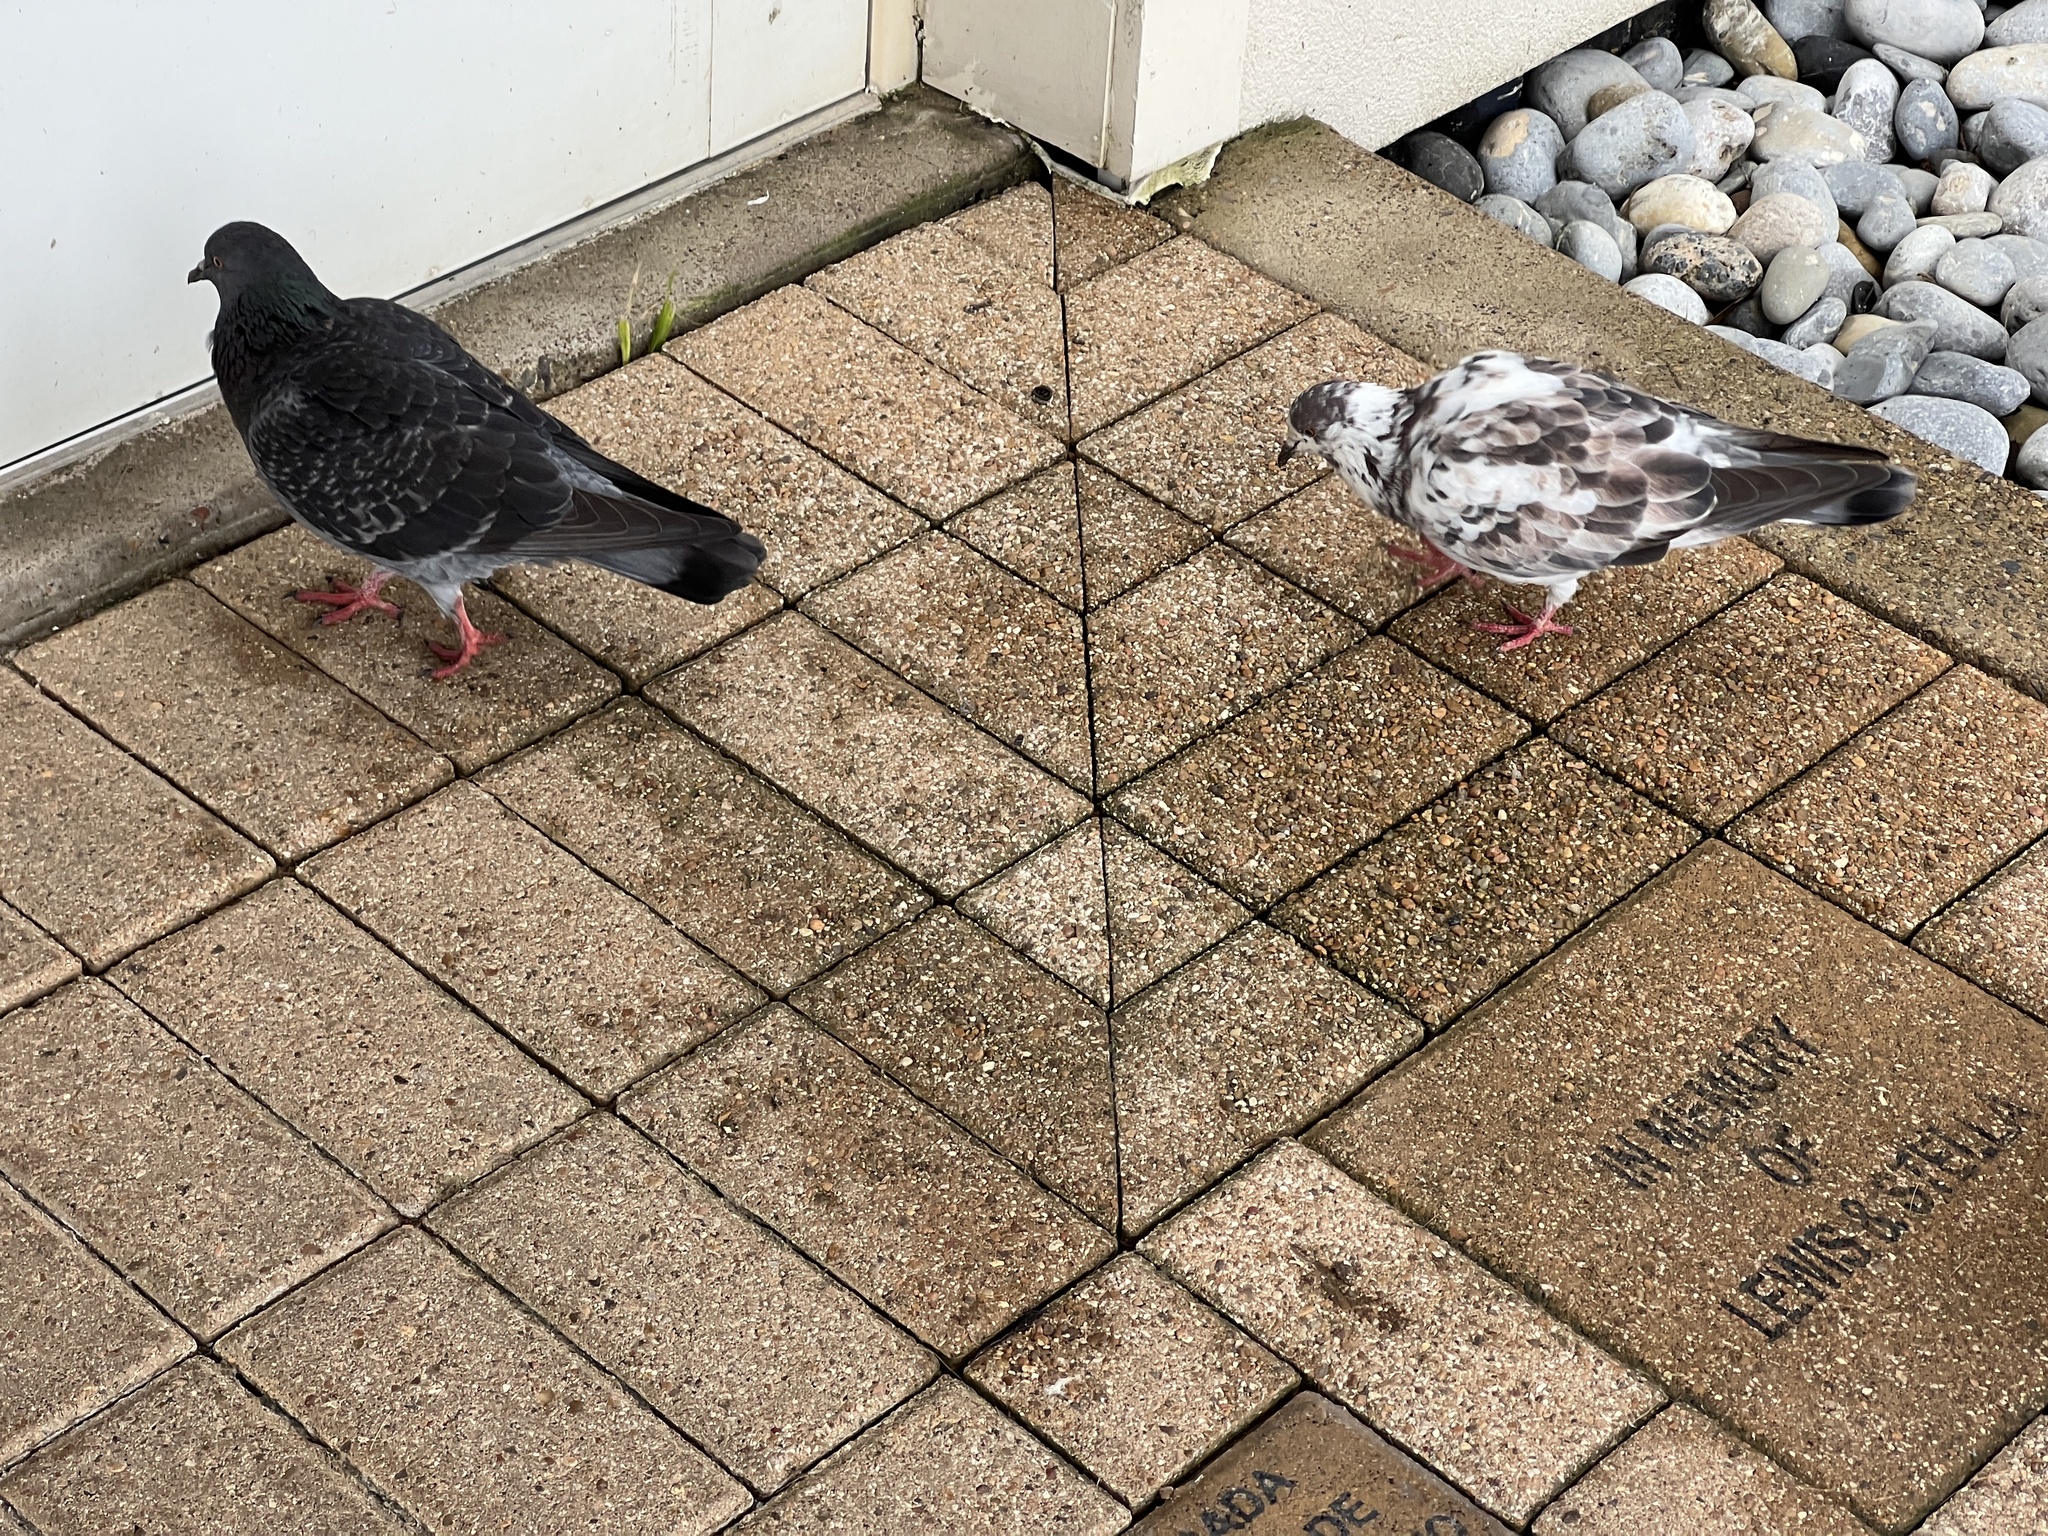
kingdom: Animalia
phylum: Chordata
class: Aves
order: Columbiformes
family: Columbidae
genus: Columba
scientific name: Columba livia
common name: Rock pigeon
